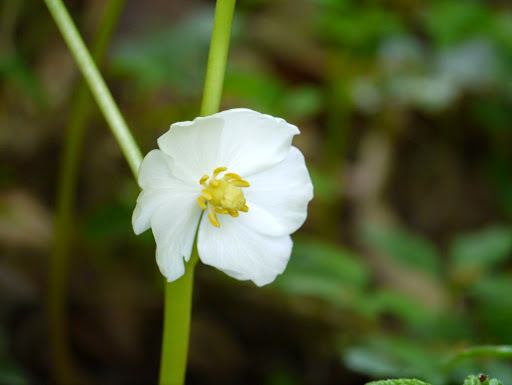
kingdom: Plantae
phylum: Tracheophyta
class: Magnoliopsida
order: Ranunculales
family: Berberidaceae
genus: Podophyllum
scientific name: Podophyllum peltatum
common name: Wild mandrake
